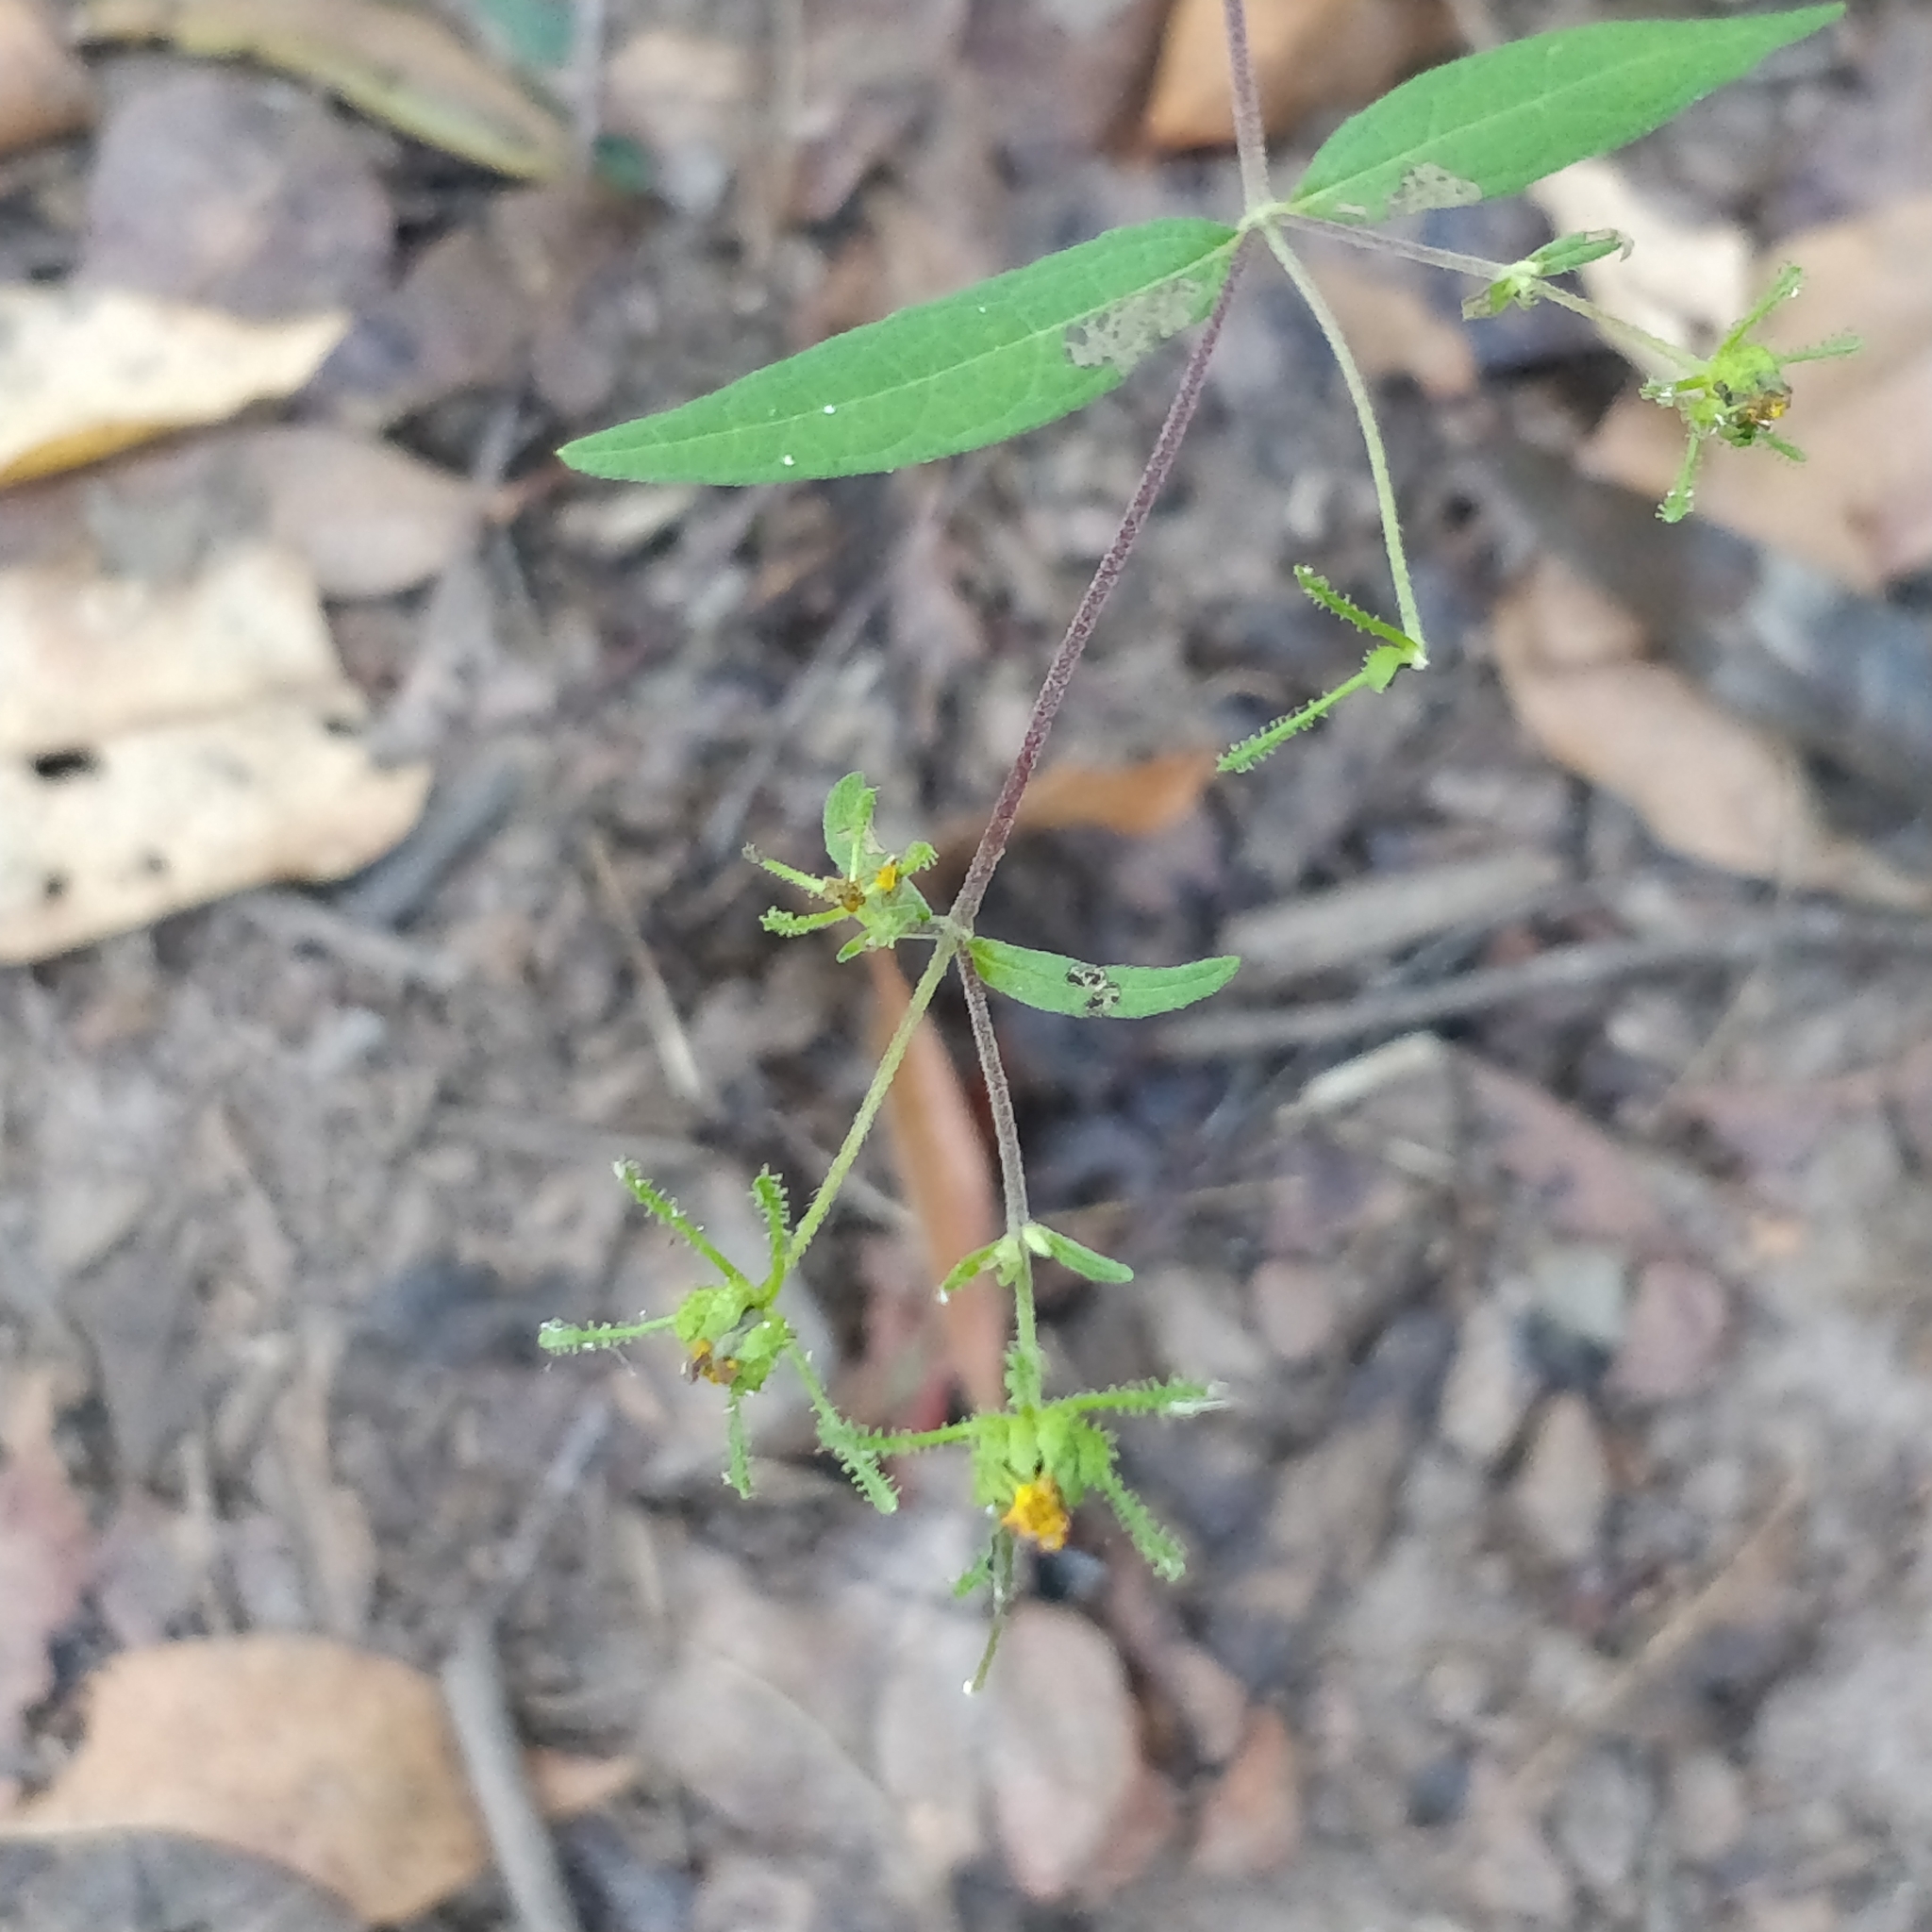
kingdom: Plantae
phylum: Tracheophyta
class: Magnoliopsida
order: Asterales
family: Asteraceae
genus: Sigesbeckia
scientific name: Sigesbeckia orientalis
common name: Eastern st paul's-wort
